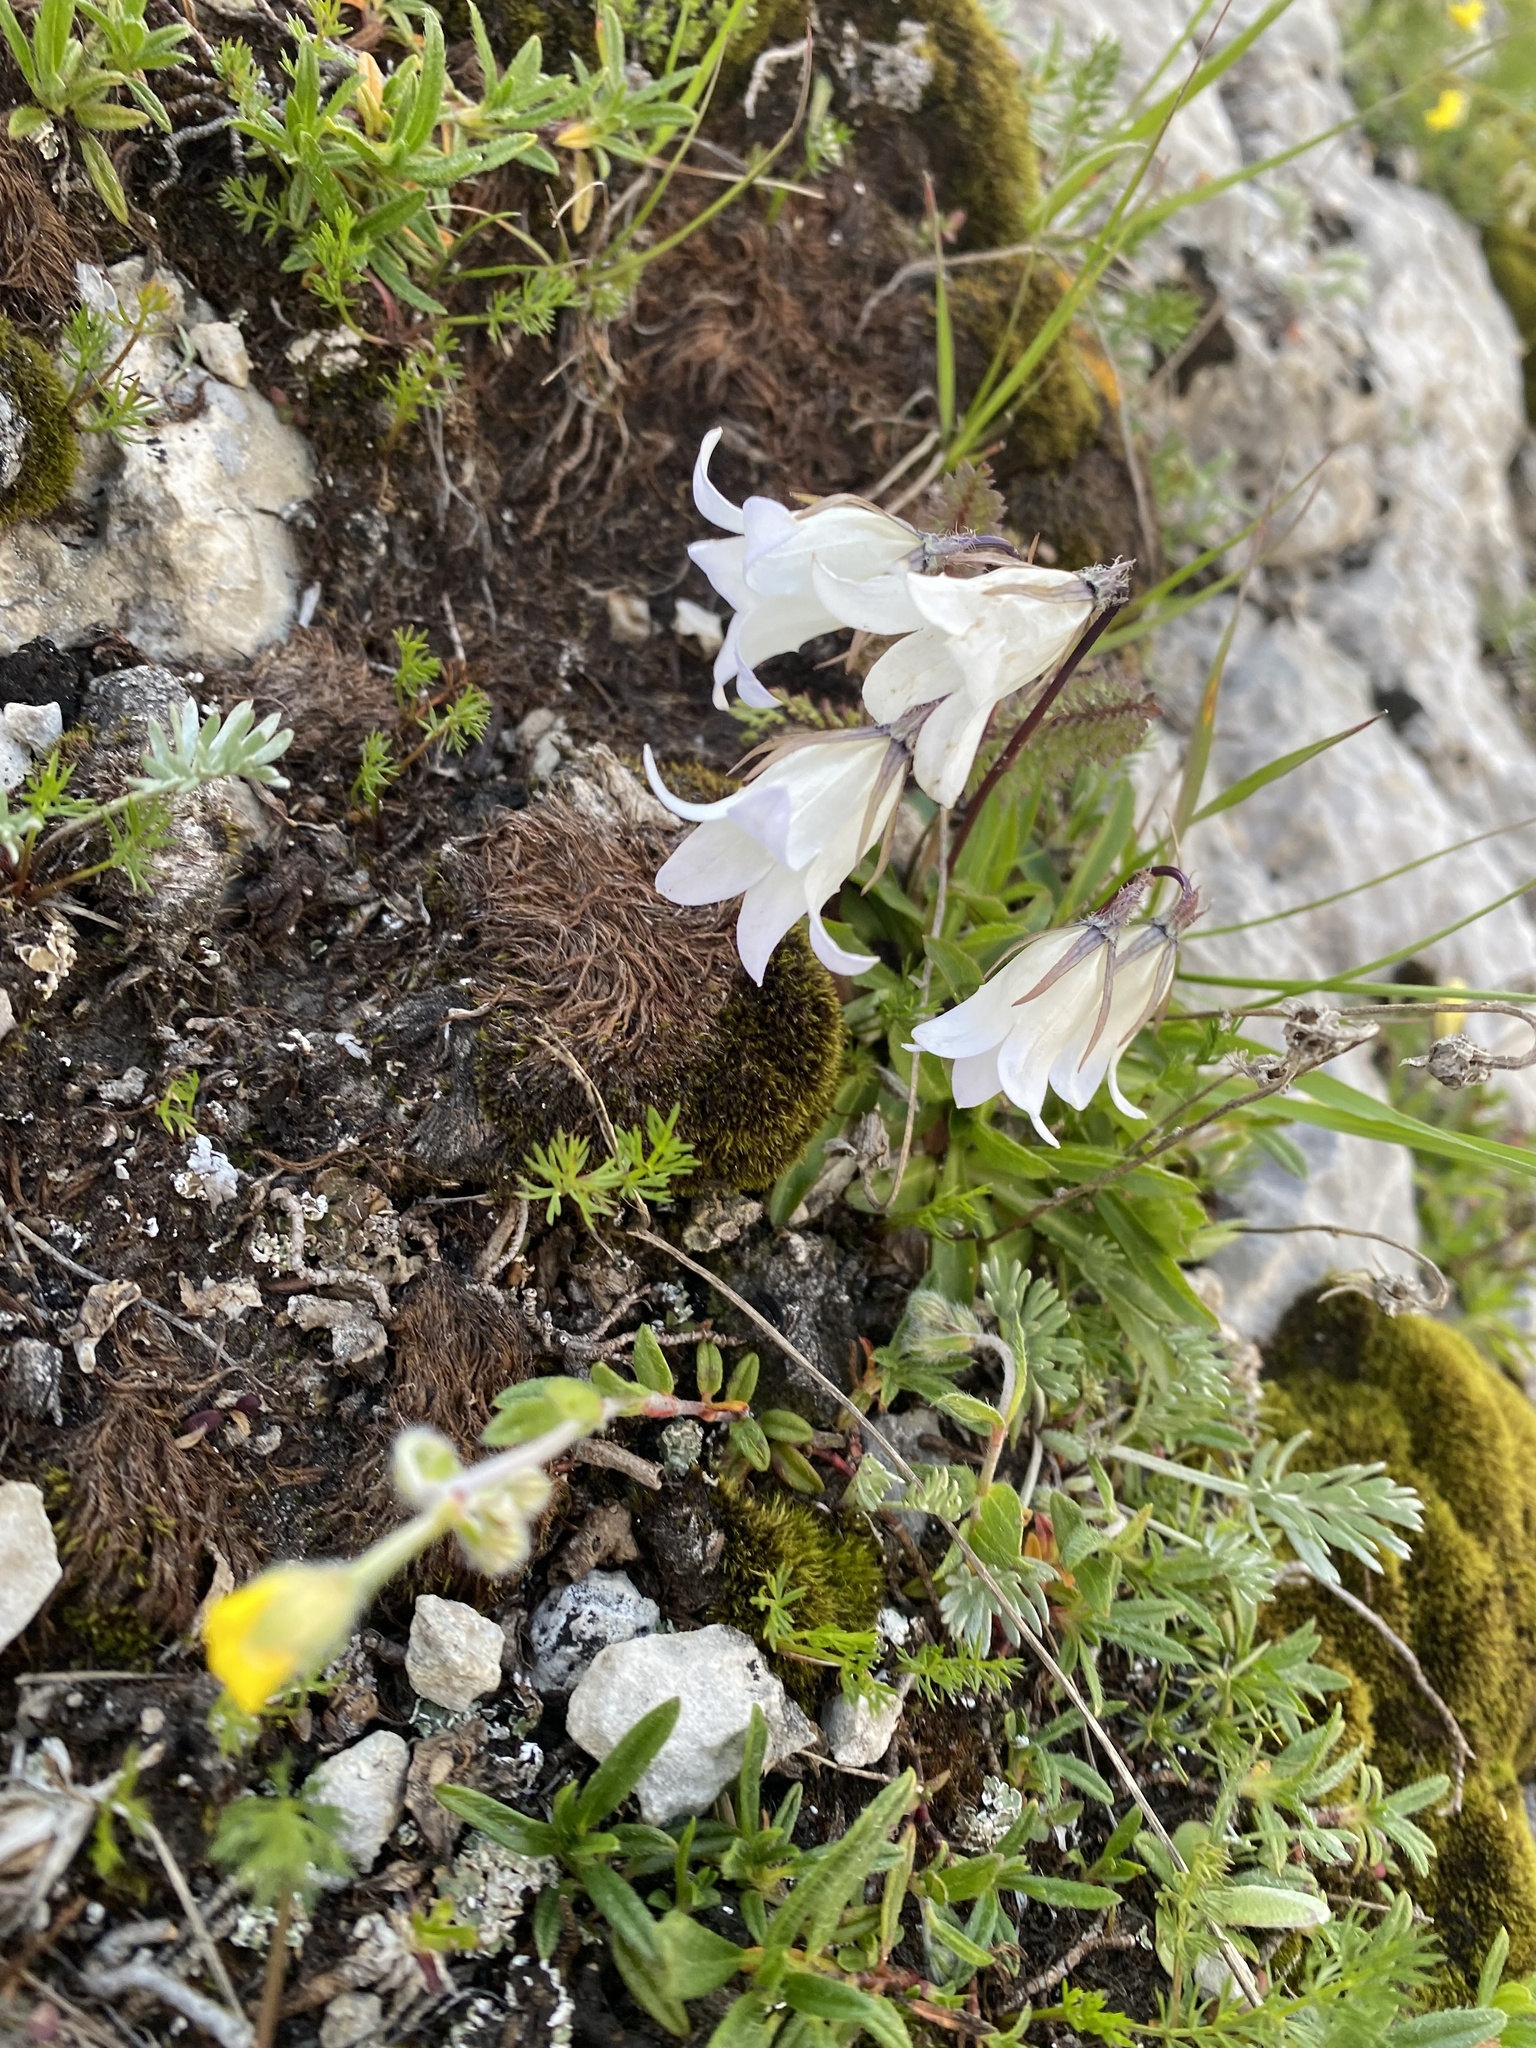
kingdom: Plantae
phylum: Tracheophyta
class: Magnoliopsida
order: Asterales
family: Campanulaceae
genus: Campanula
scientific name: Campanula ciliata
